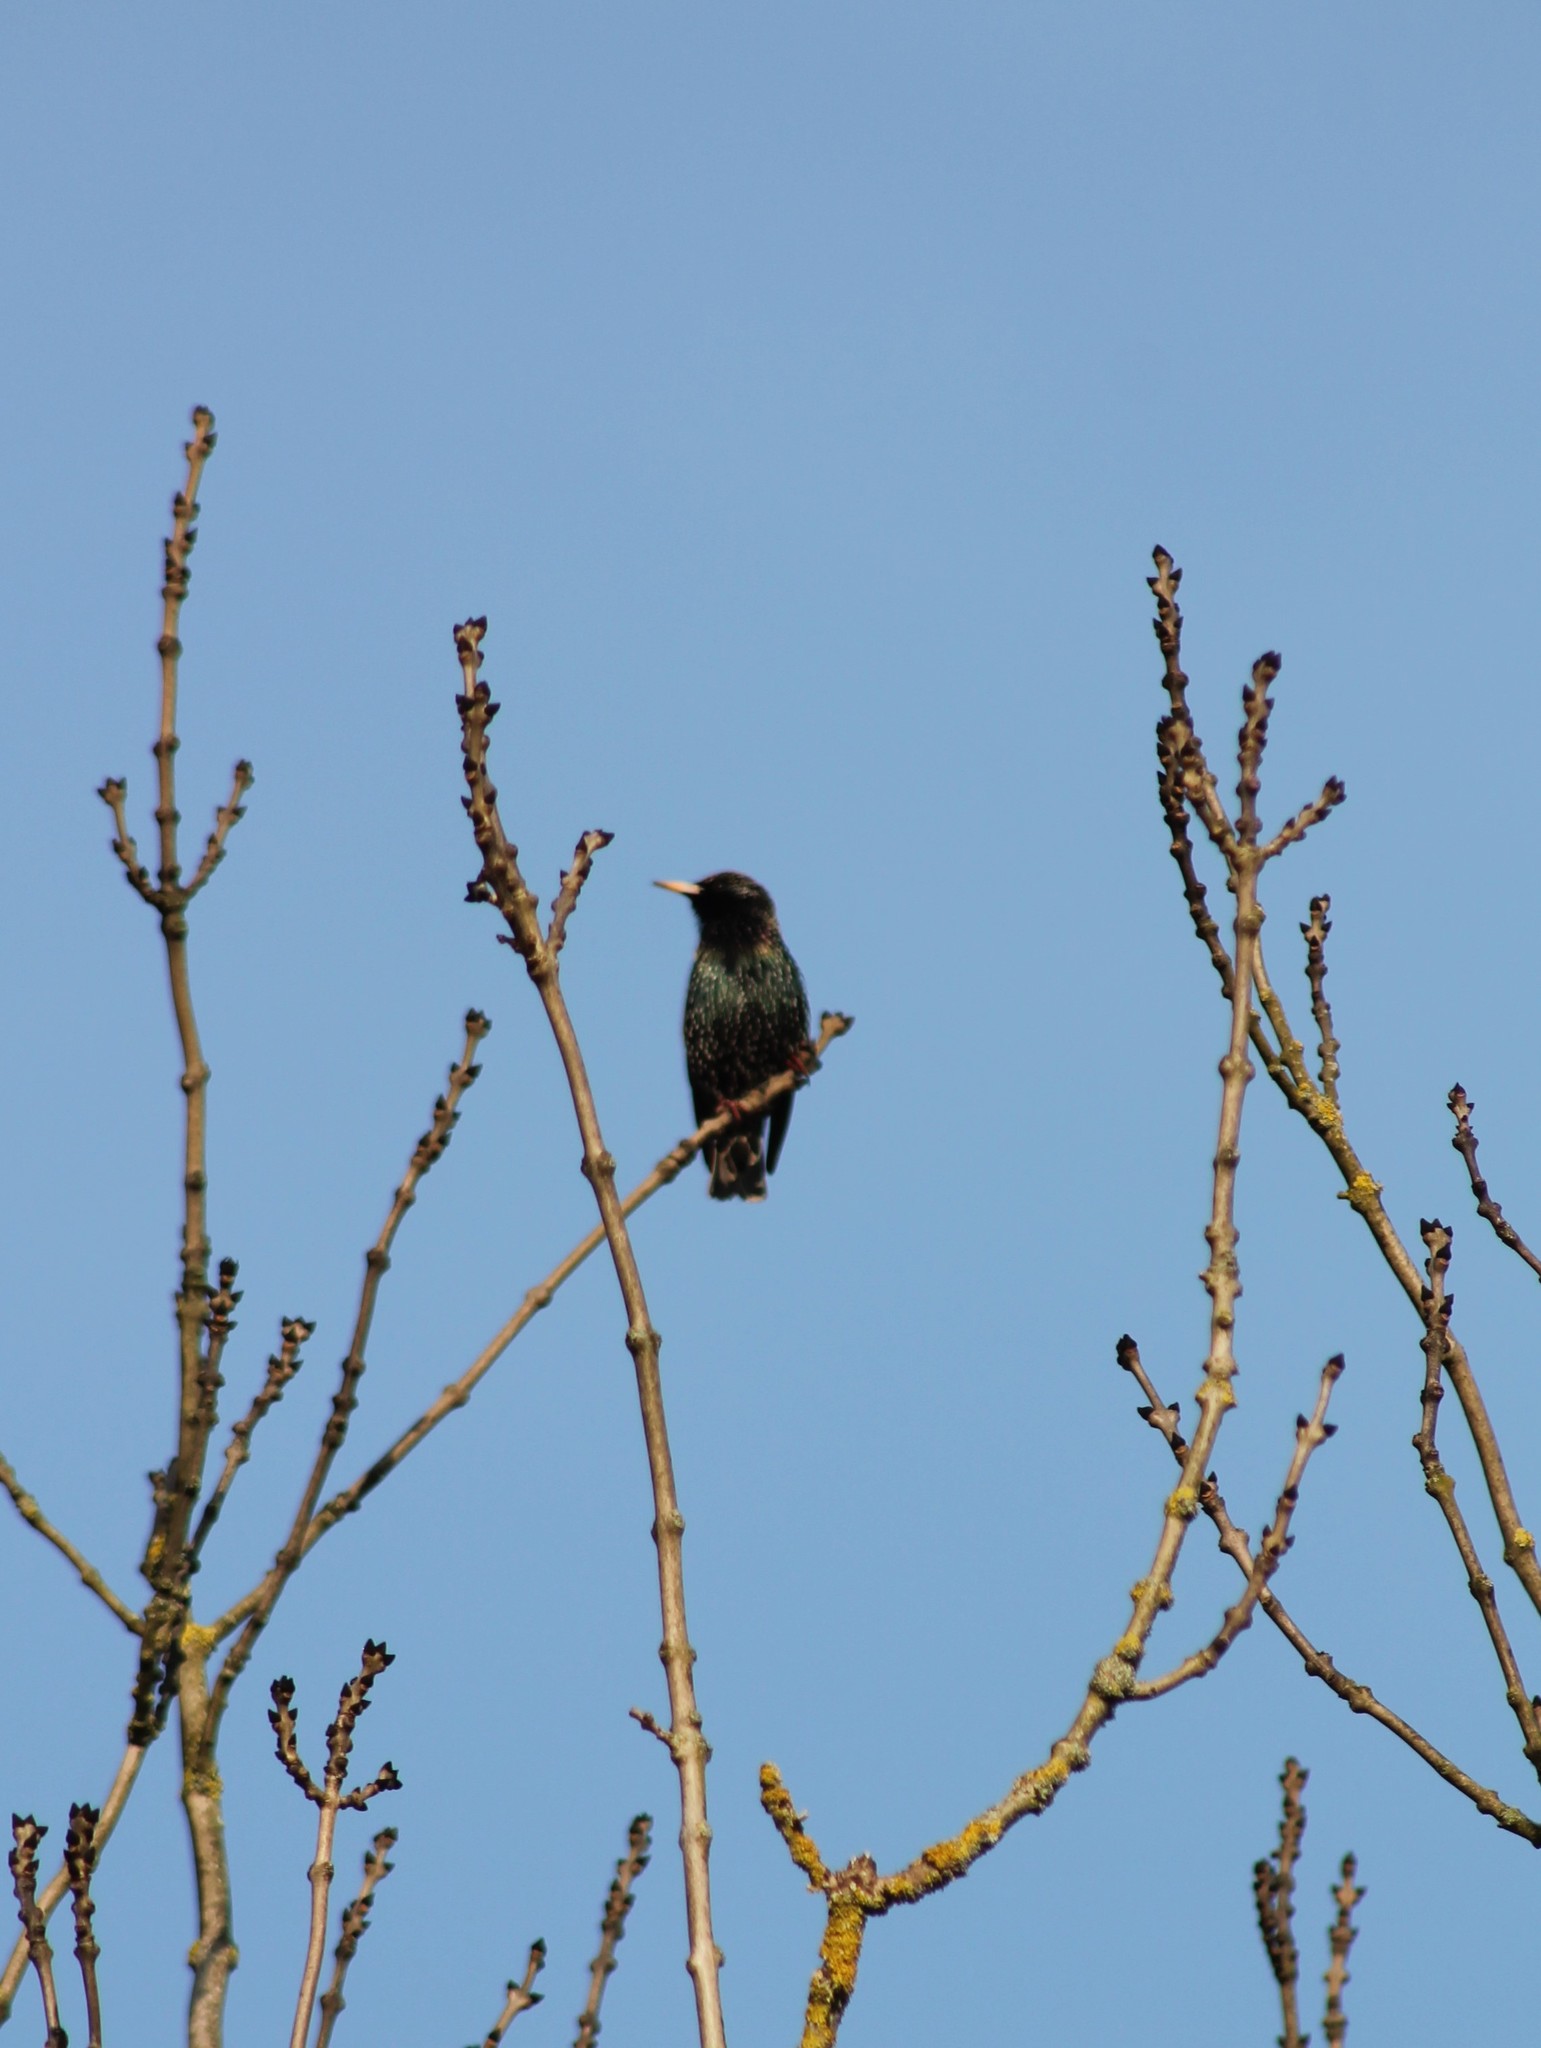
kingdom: Animalia
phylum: Chordata
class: Aves
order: Passeriformes
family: Sturnidae
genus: Sturnus
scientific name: Sturnus vulgaris
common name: Common starling
